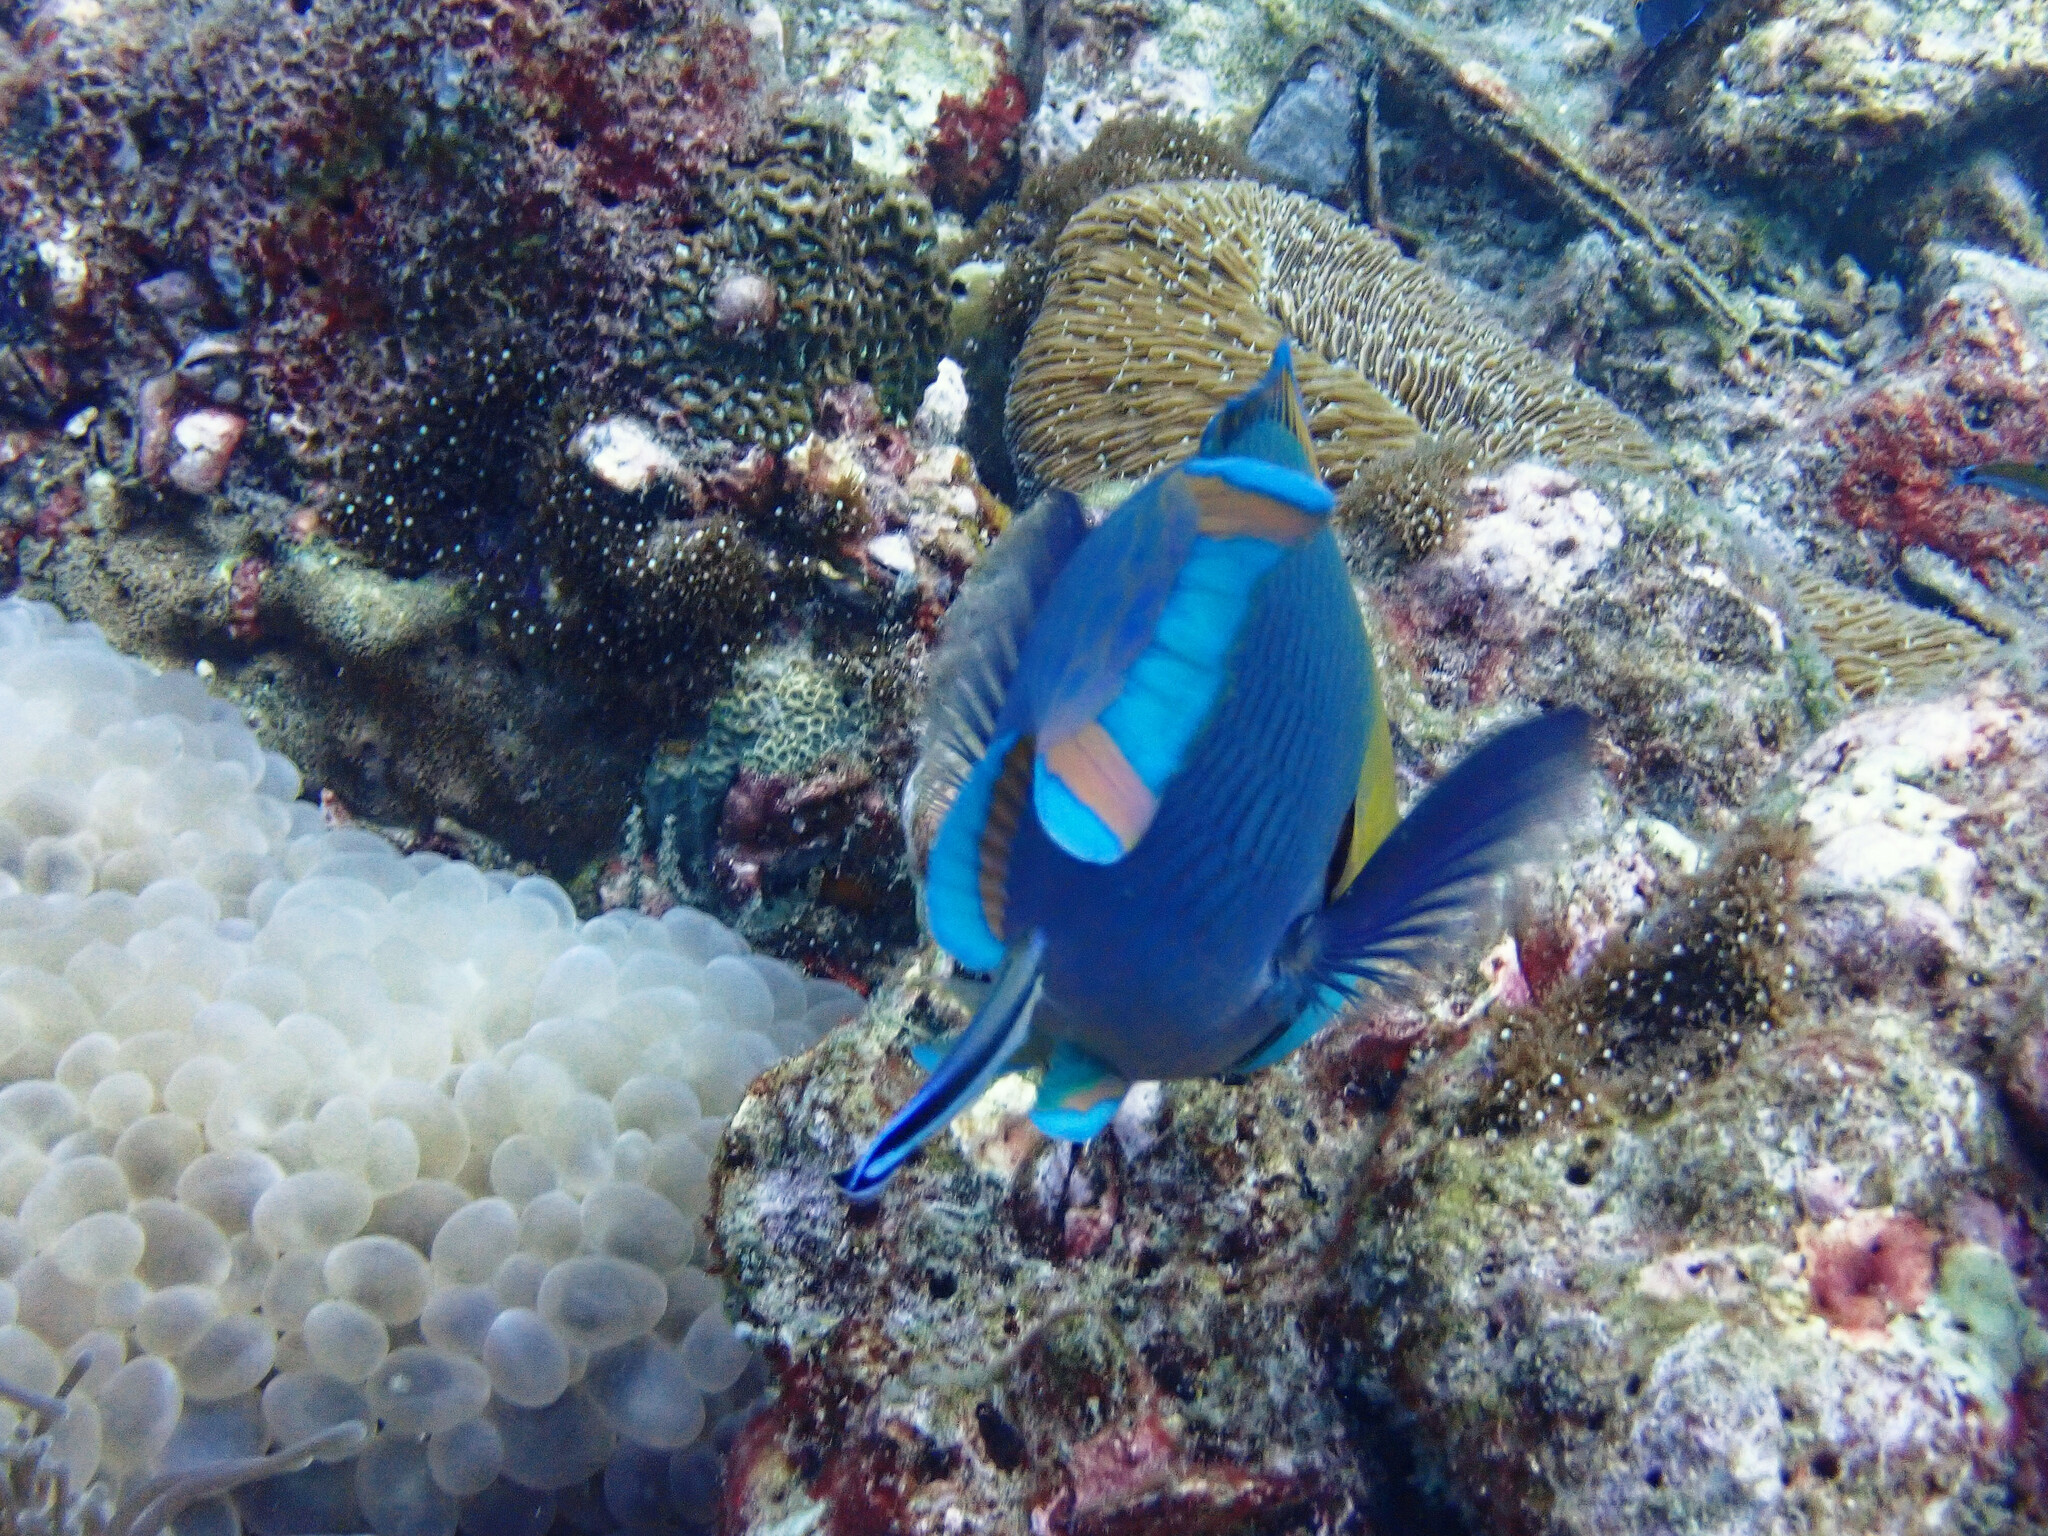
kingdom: Animalia
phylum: Chordata
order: Perciformes
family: Scaridae
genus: Scarus
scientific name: Scarus prasiognathos
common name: Singapore parrotfish
